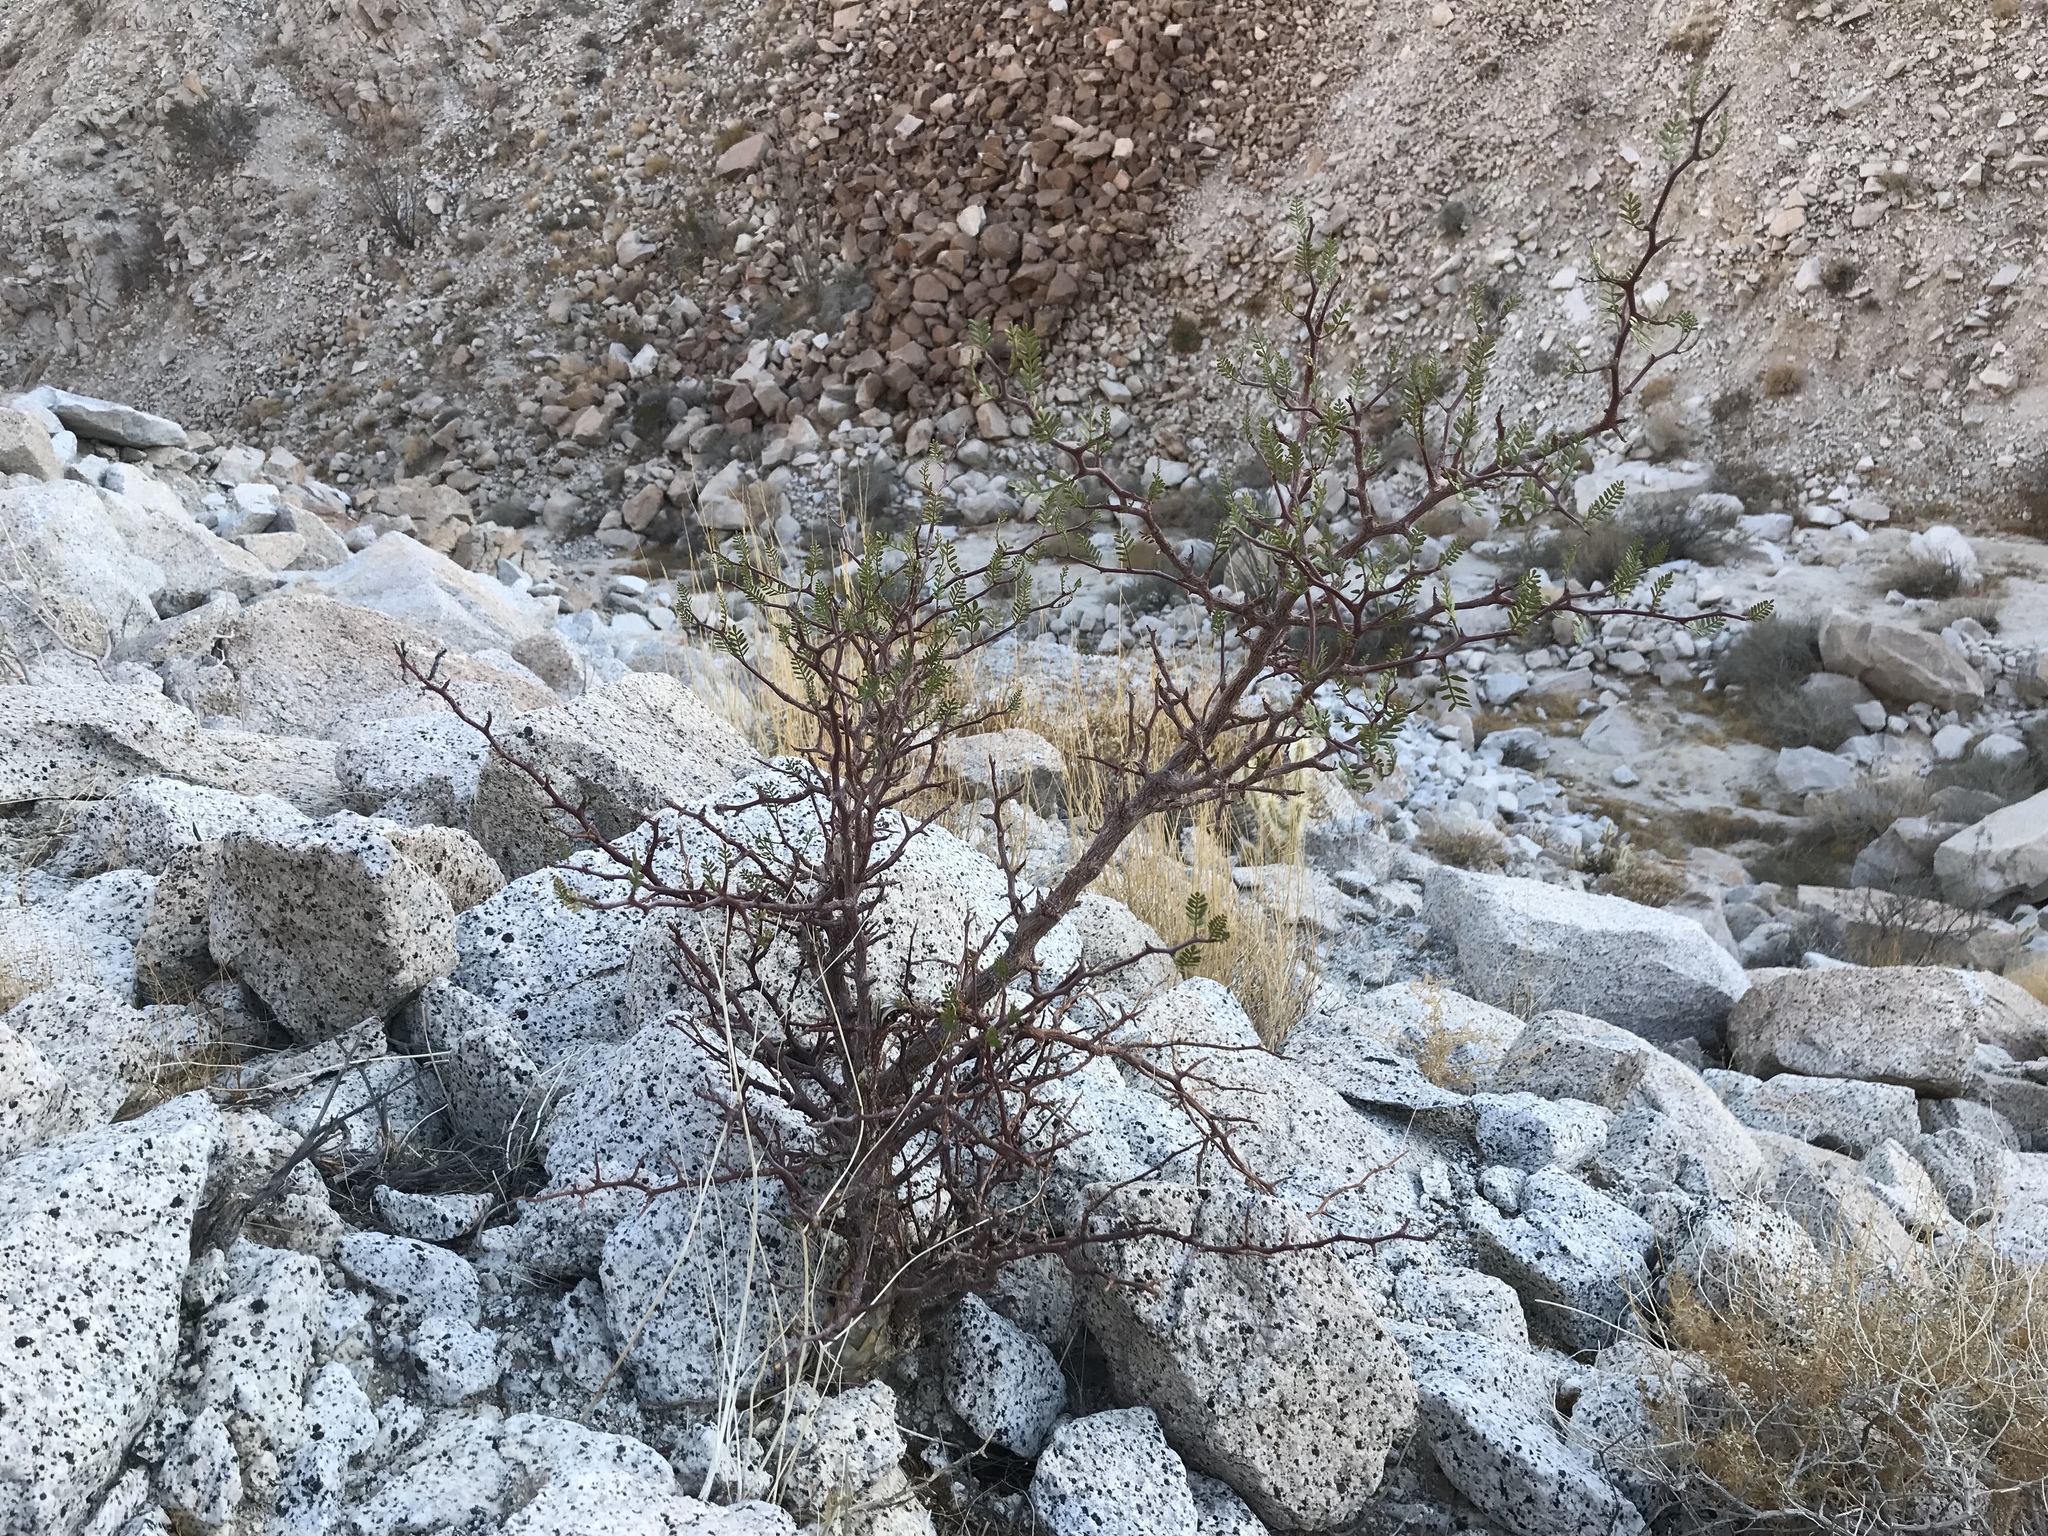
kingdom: Plantae
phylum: Tracheophyta
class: Magnoliopsida
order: Sapindales
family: Burseraceae
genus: Bursera
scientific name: Bursera microphylla
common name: Elephant tree
